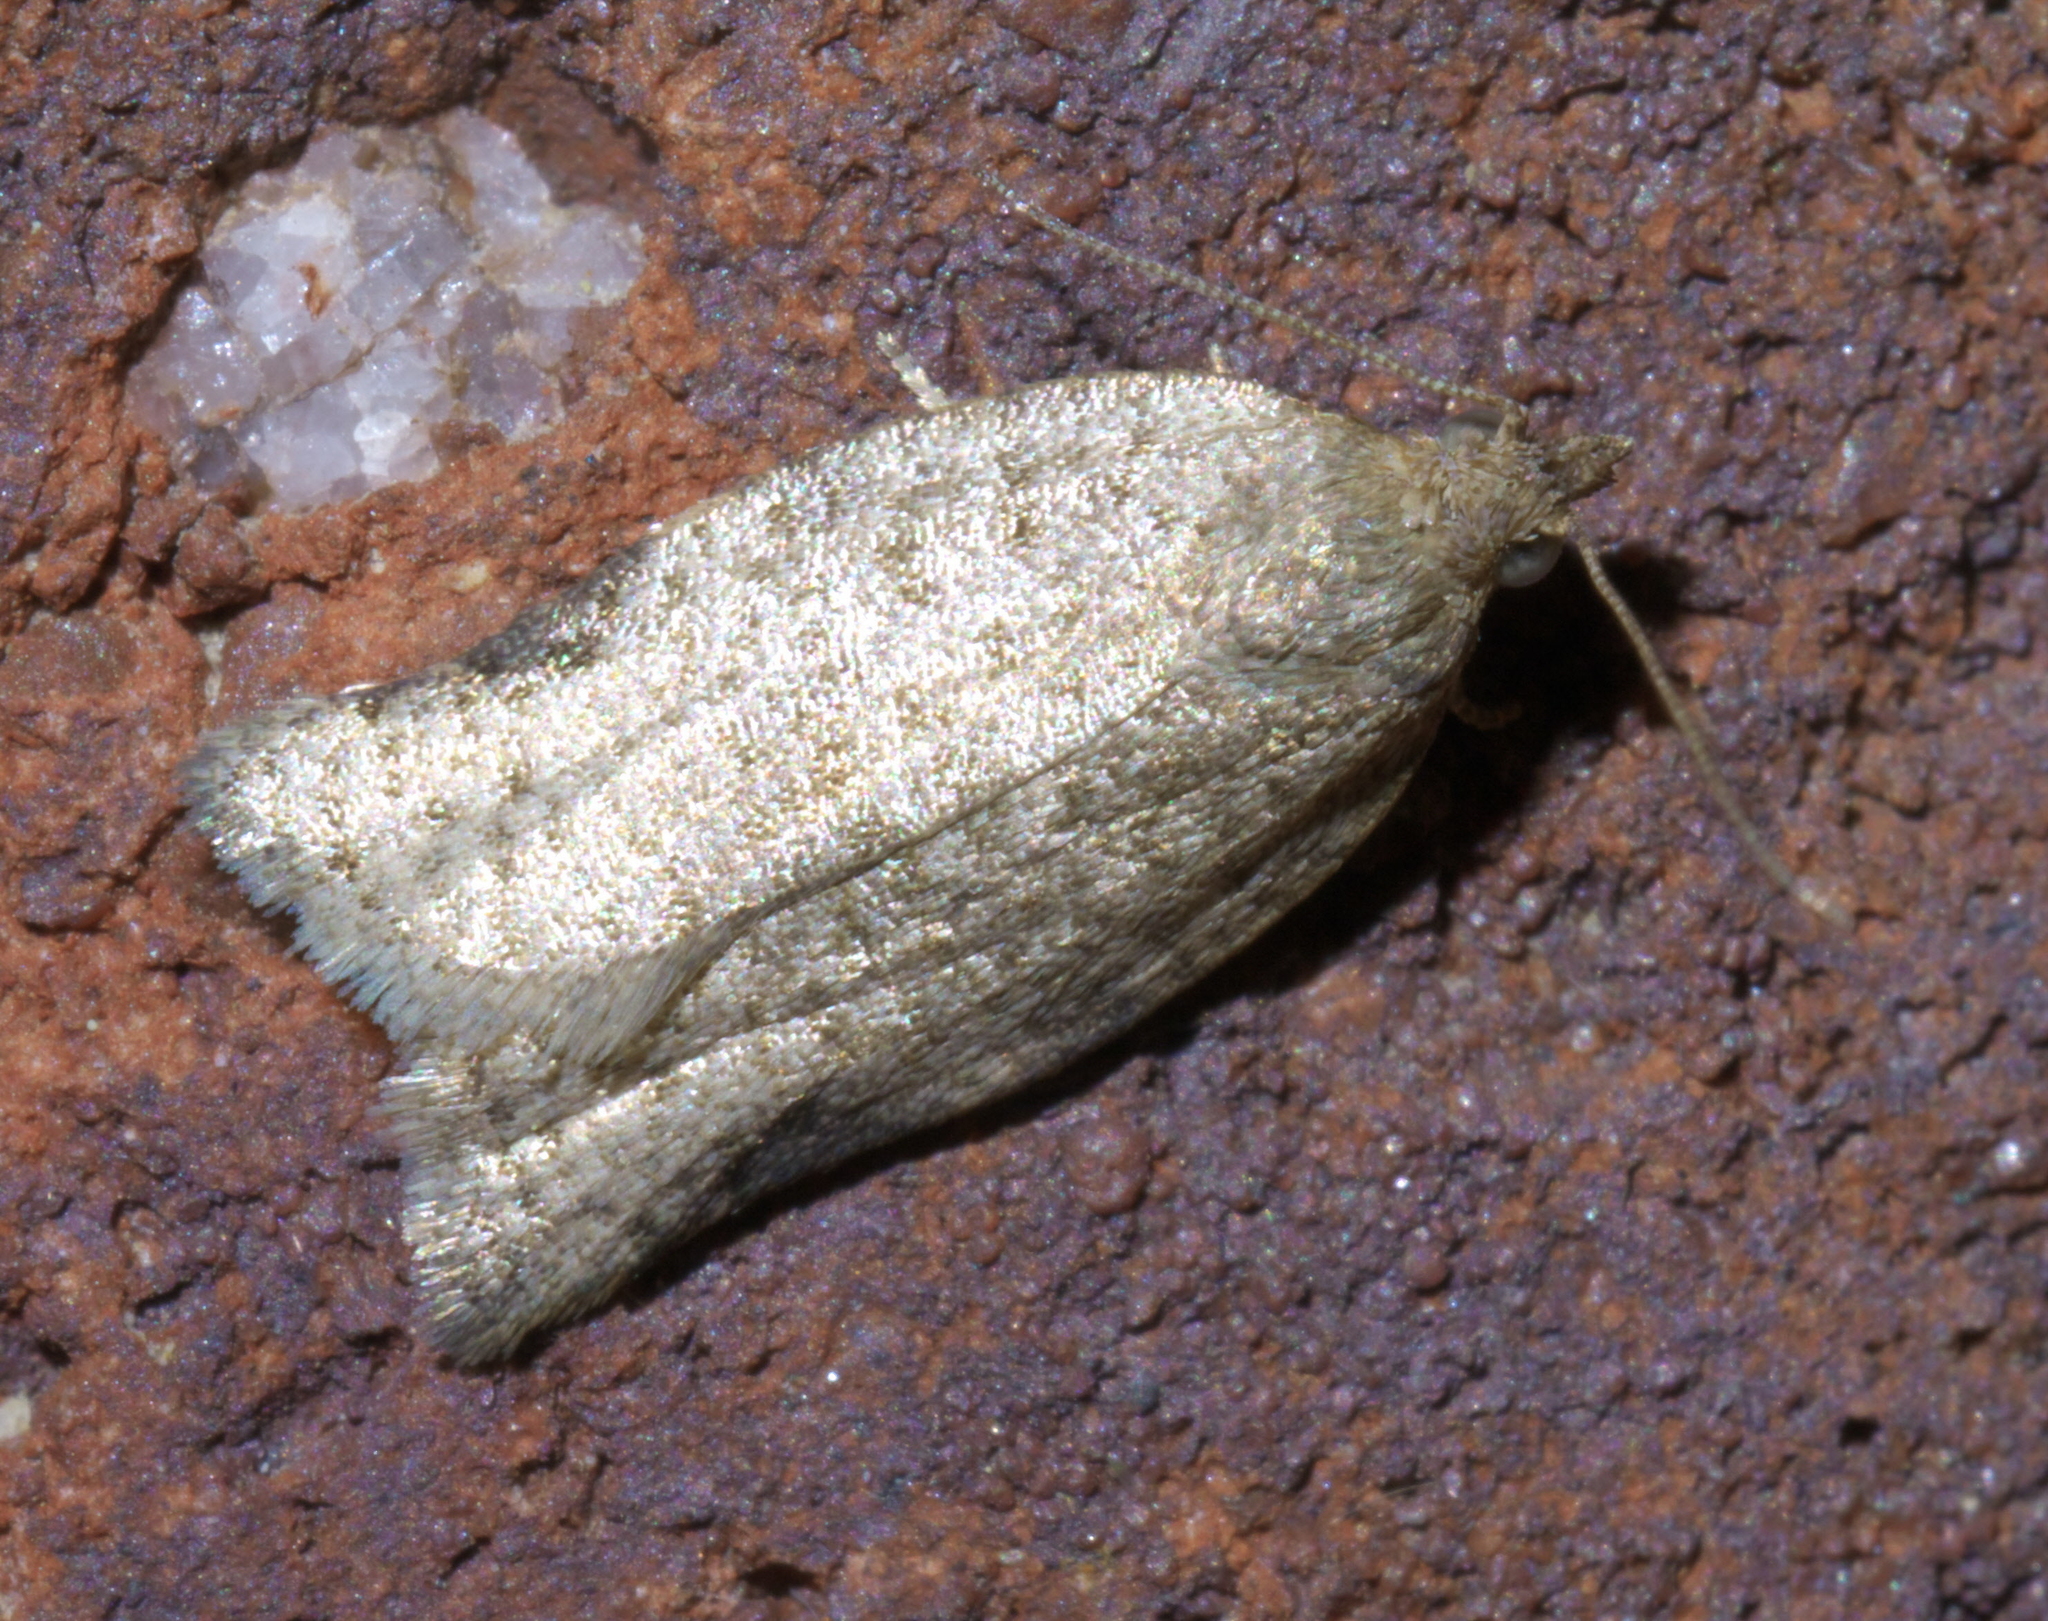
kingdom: Animalia
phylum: Arthropoda
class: Insecta
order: Lepidoptera
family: Tortricidae
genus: Clepsis
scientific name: Clepsis virescana
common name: Greenish apple moth
